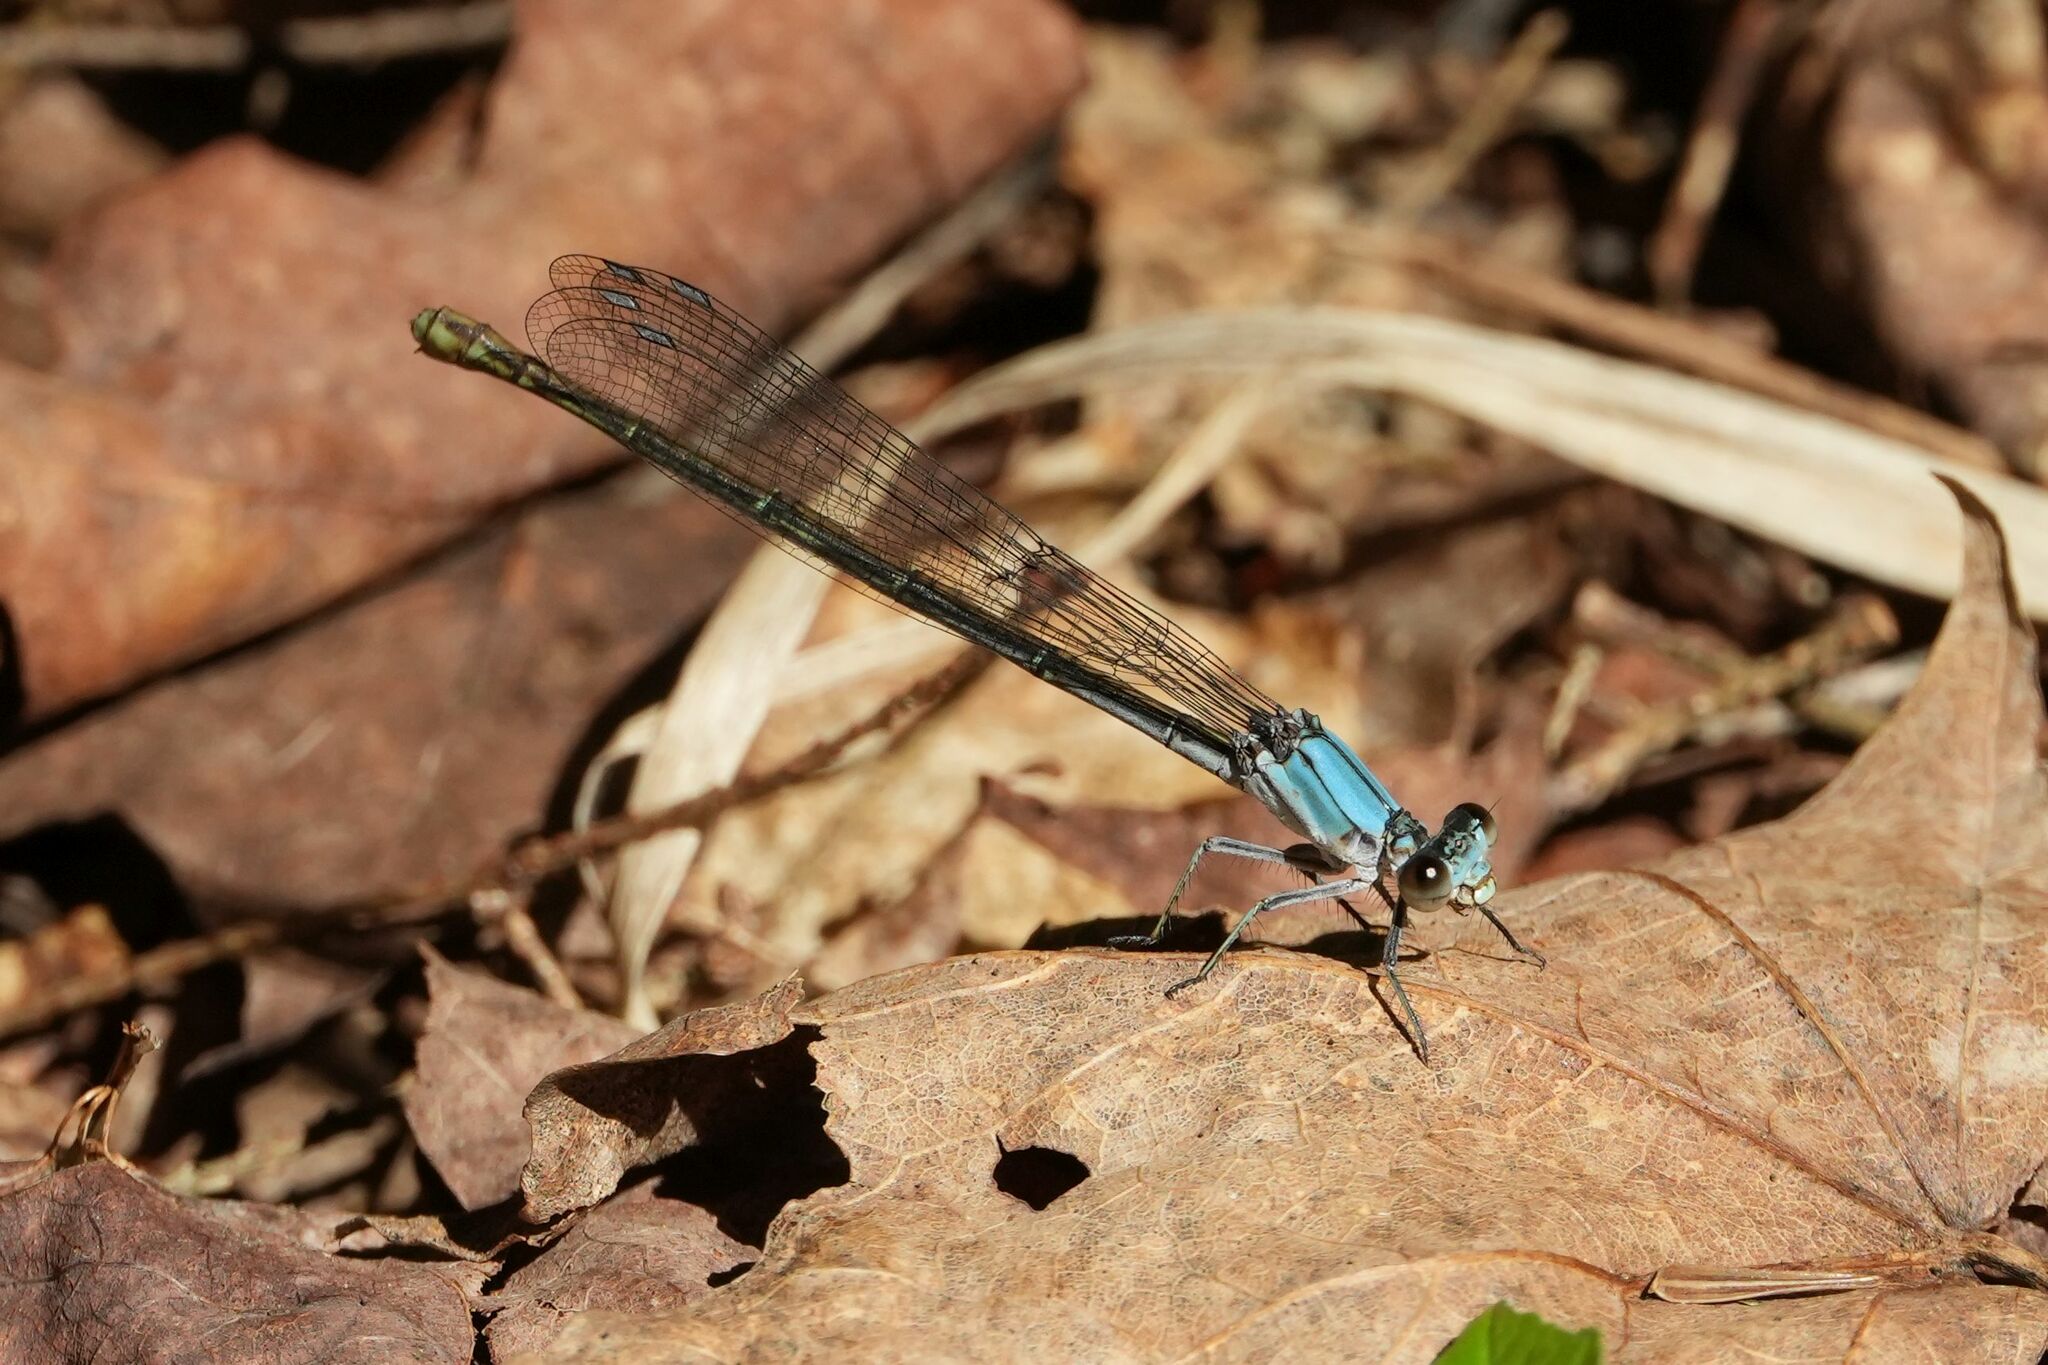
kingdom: Animalia
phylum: Arthropoda
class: Insecta
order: Odonata
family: Coenagrionidae
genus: Argia
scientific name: Argia moesta
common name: Powdered dancer
